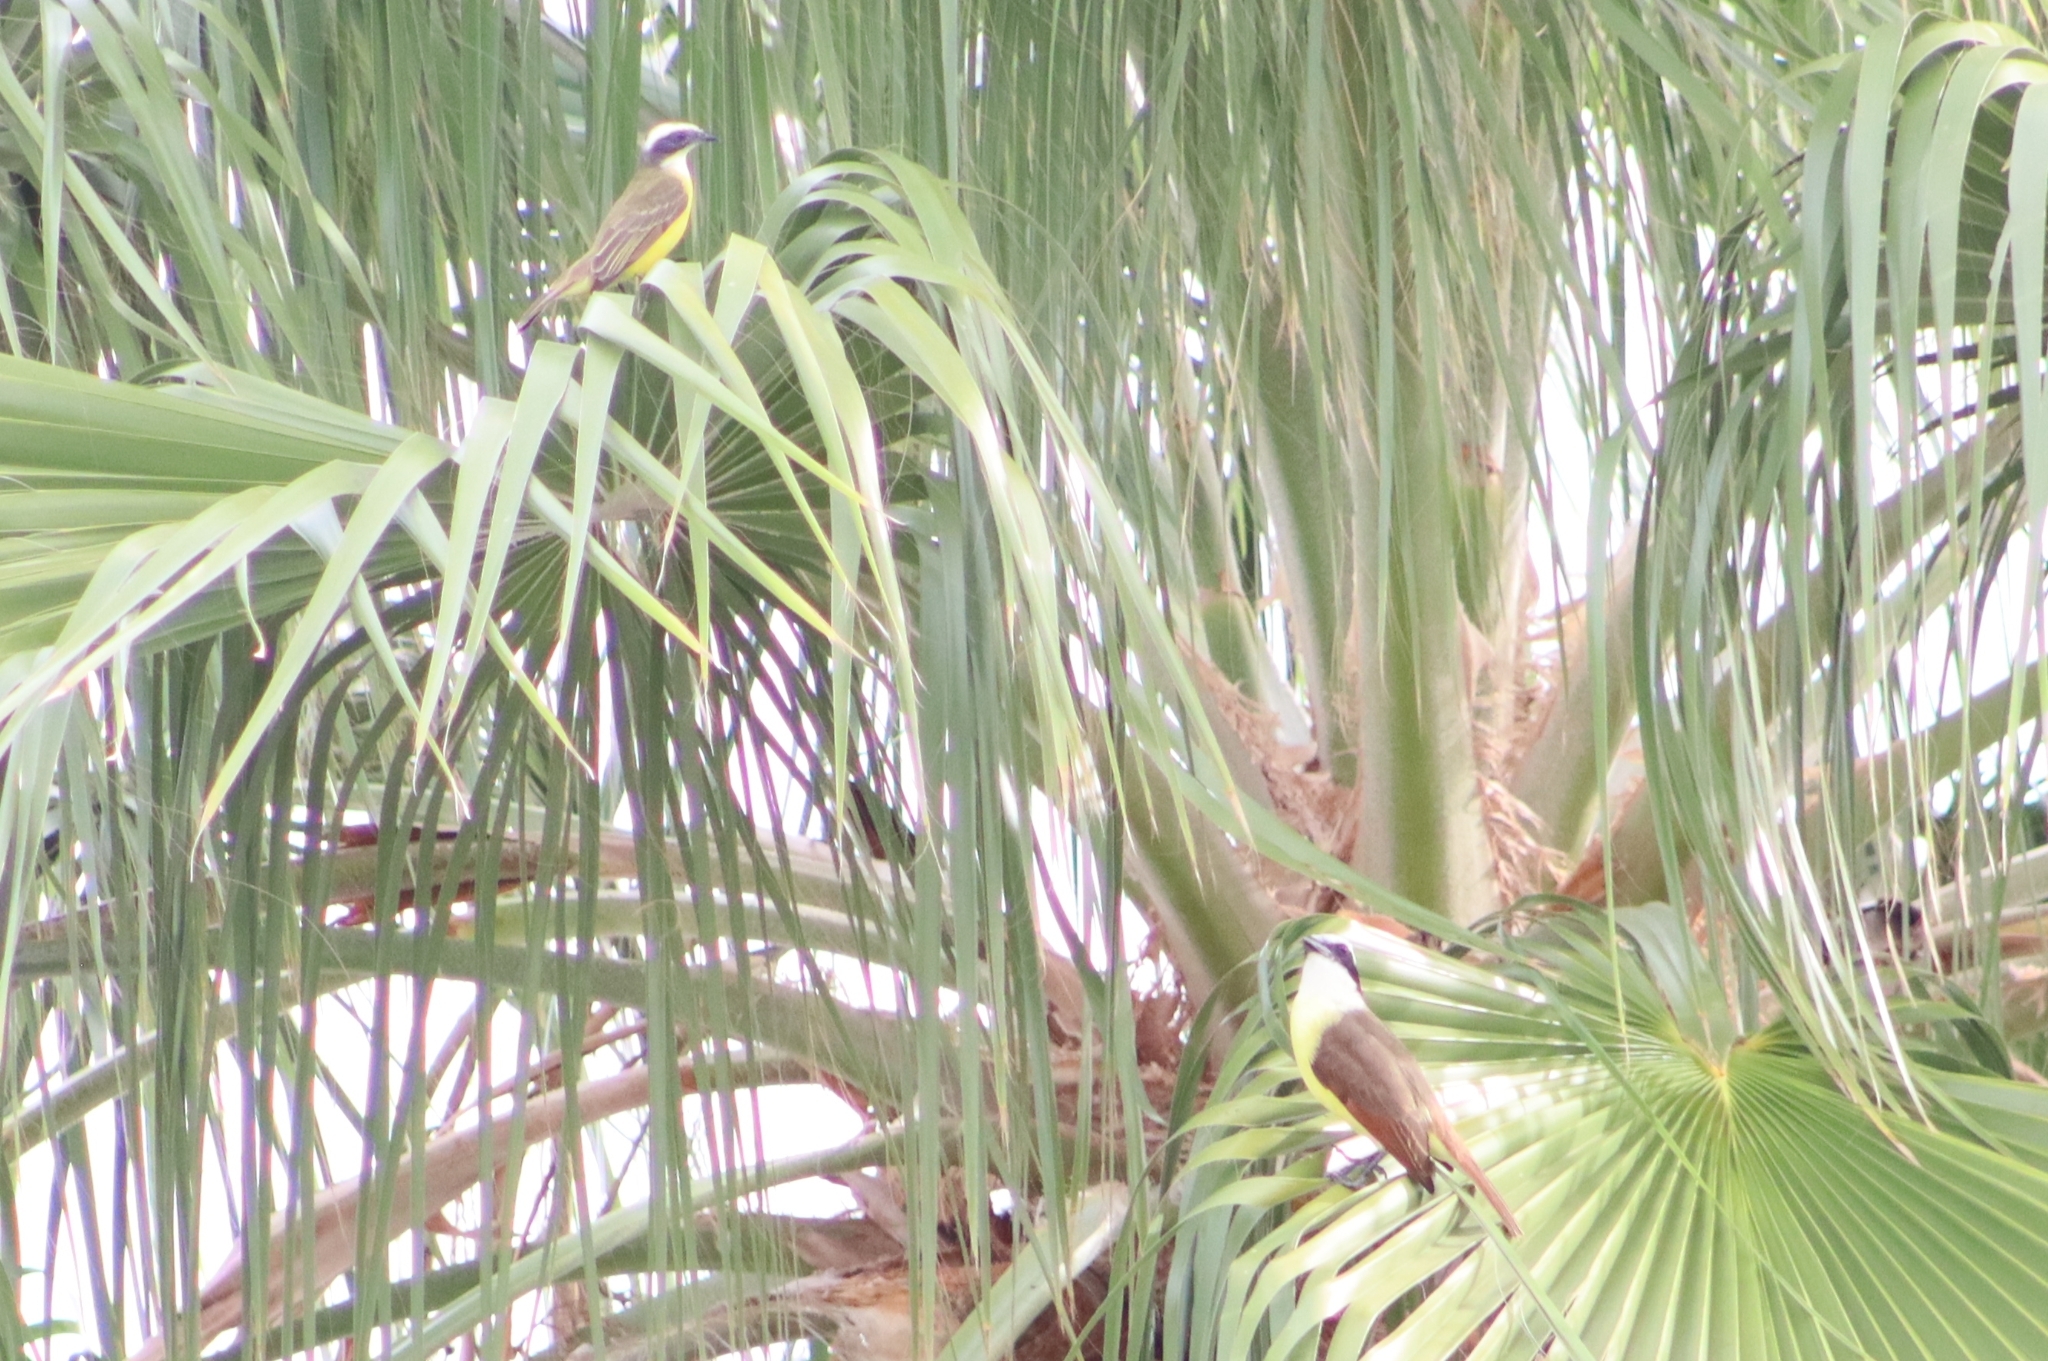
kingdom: Animalia
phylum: Chordata
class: Aves
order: Passeriformes
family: Tyrannidae
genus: Pitangus
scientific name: Pitangus sulphuratus
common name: Great kiskadee
